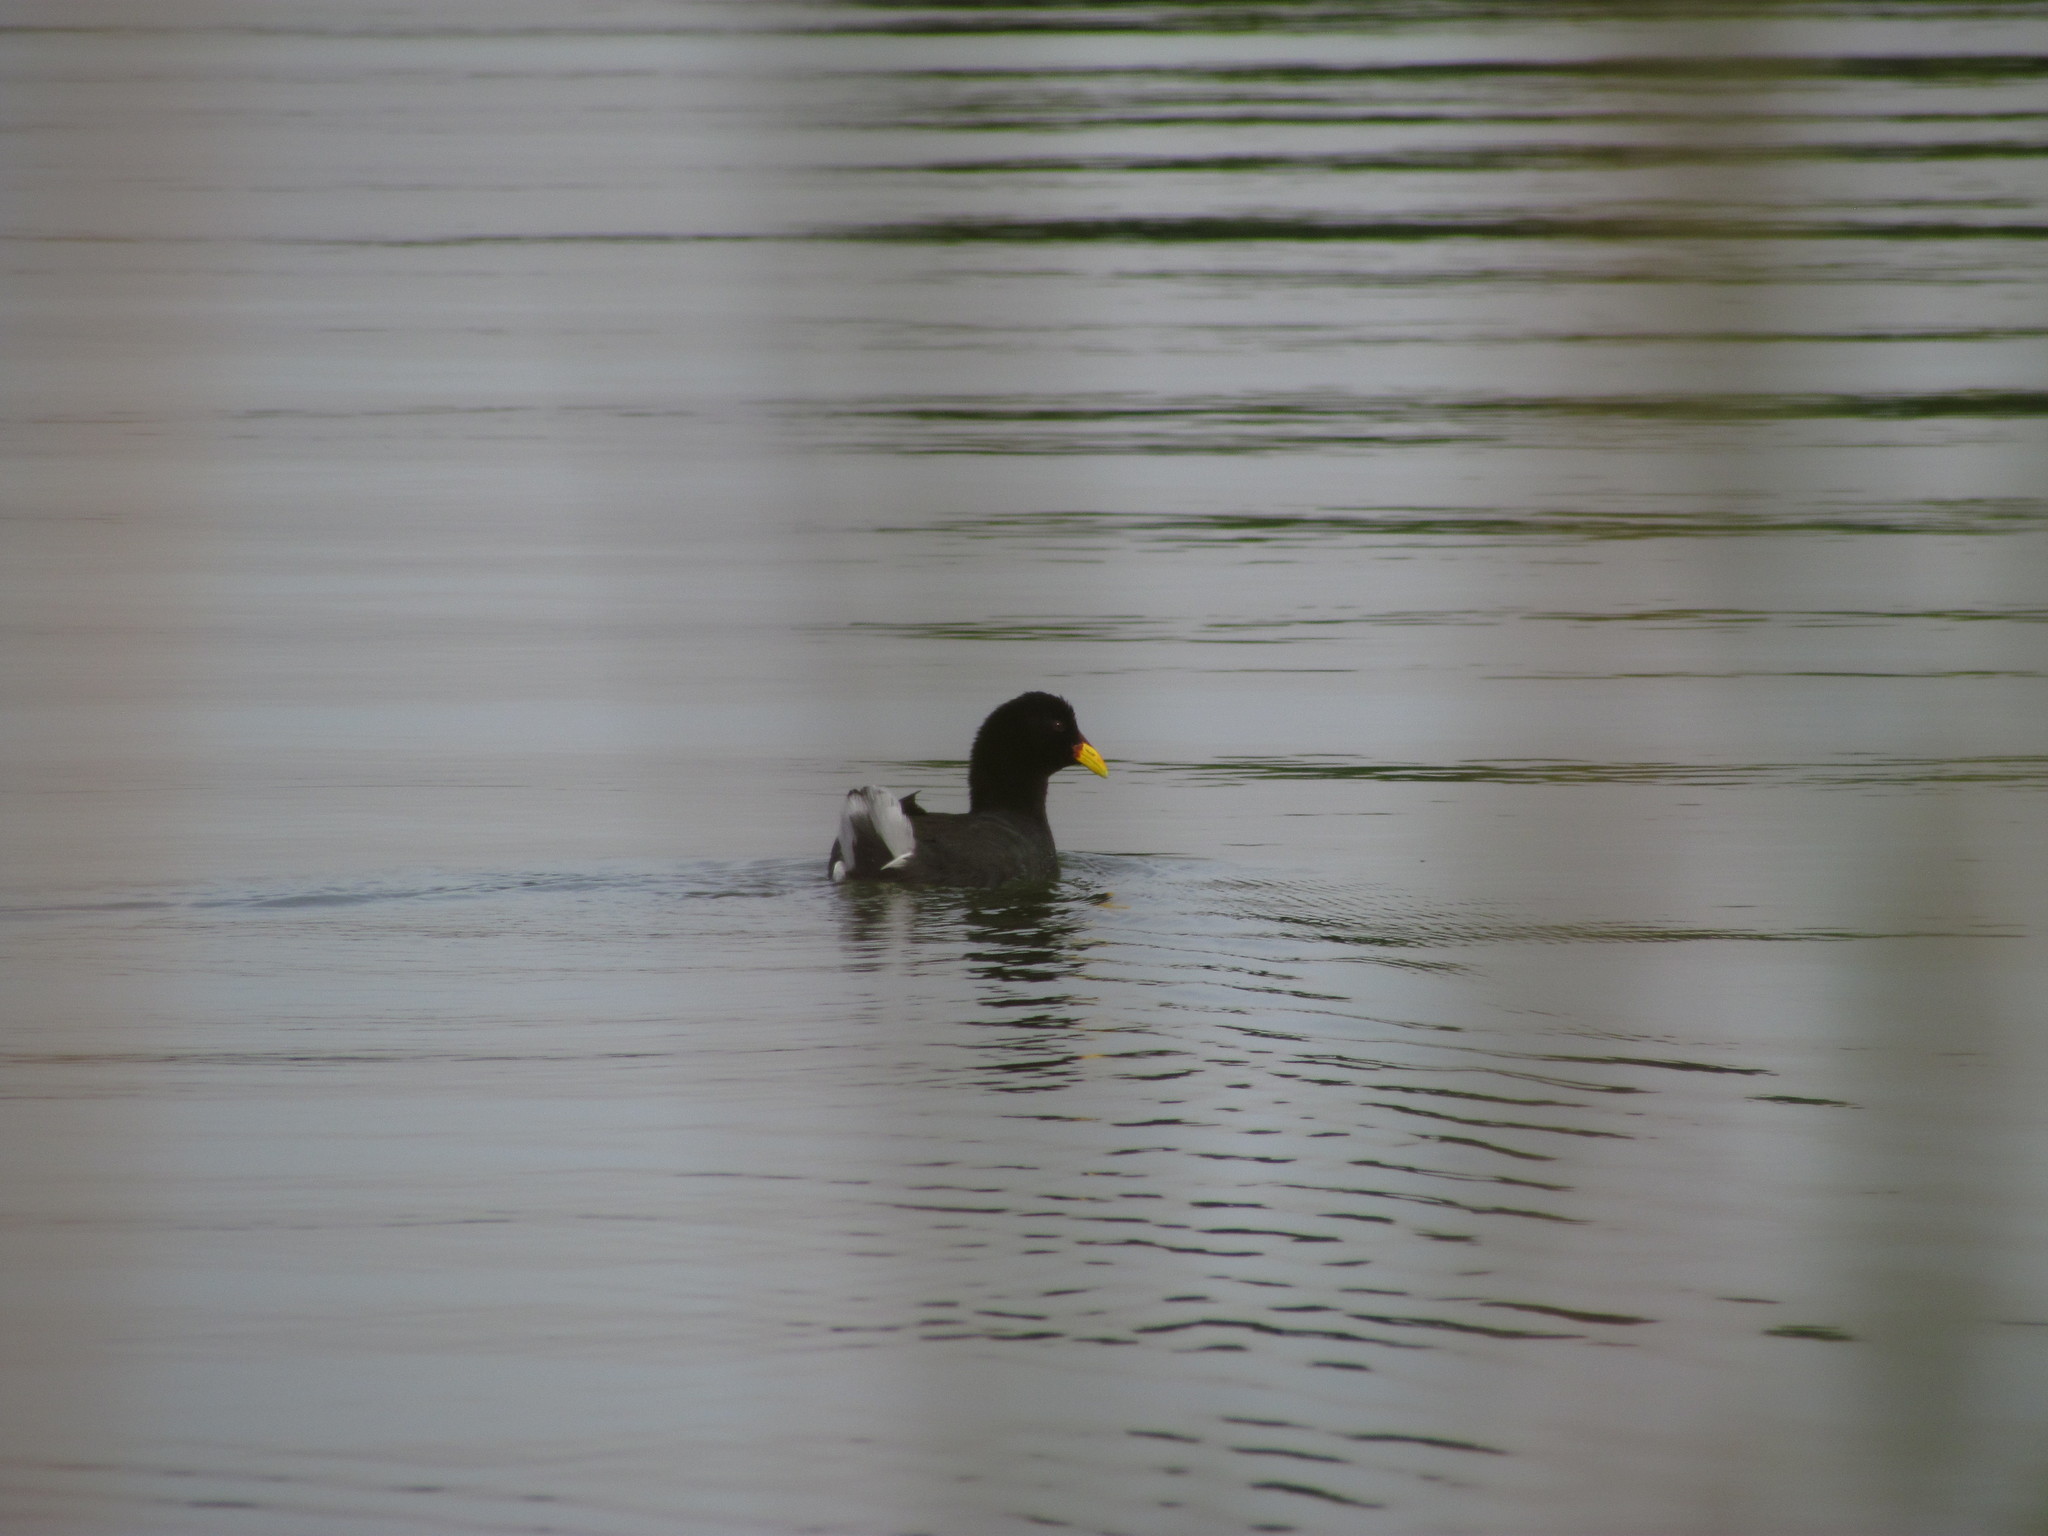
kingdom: Animalia
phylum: Chordata
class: Aves
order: Gruiformes
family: Rallidae
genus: Fulica
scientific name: Fulica rufifrons
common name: Red-fronted coot
